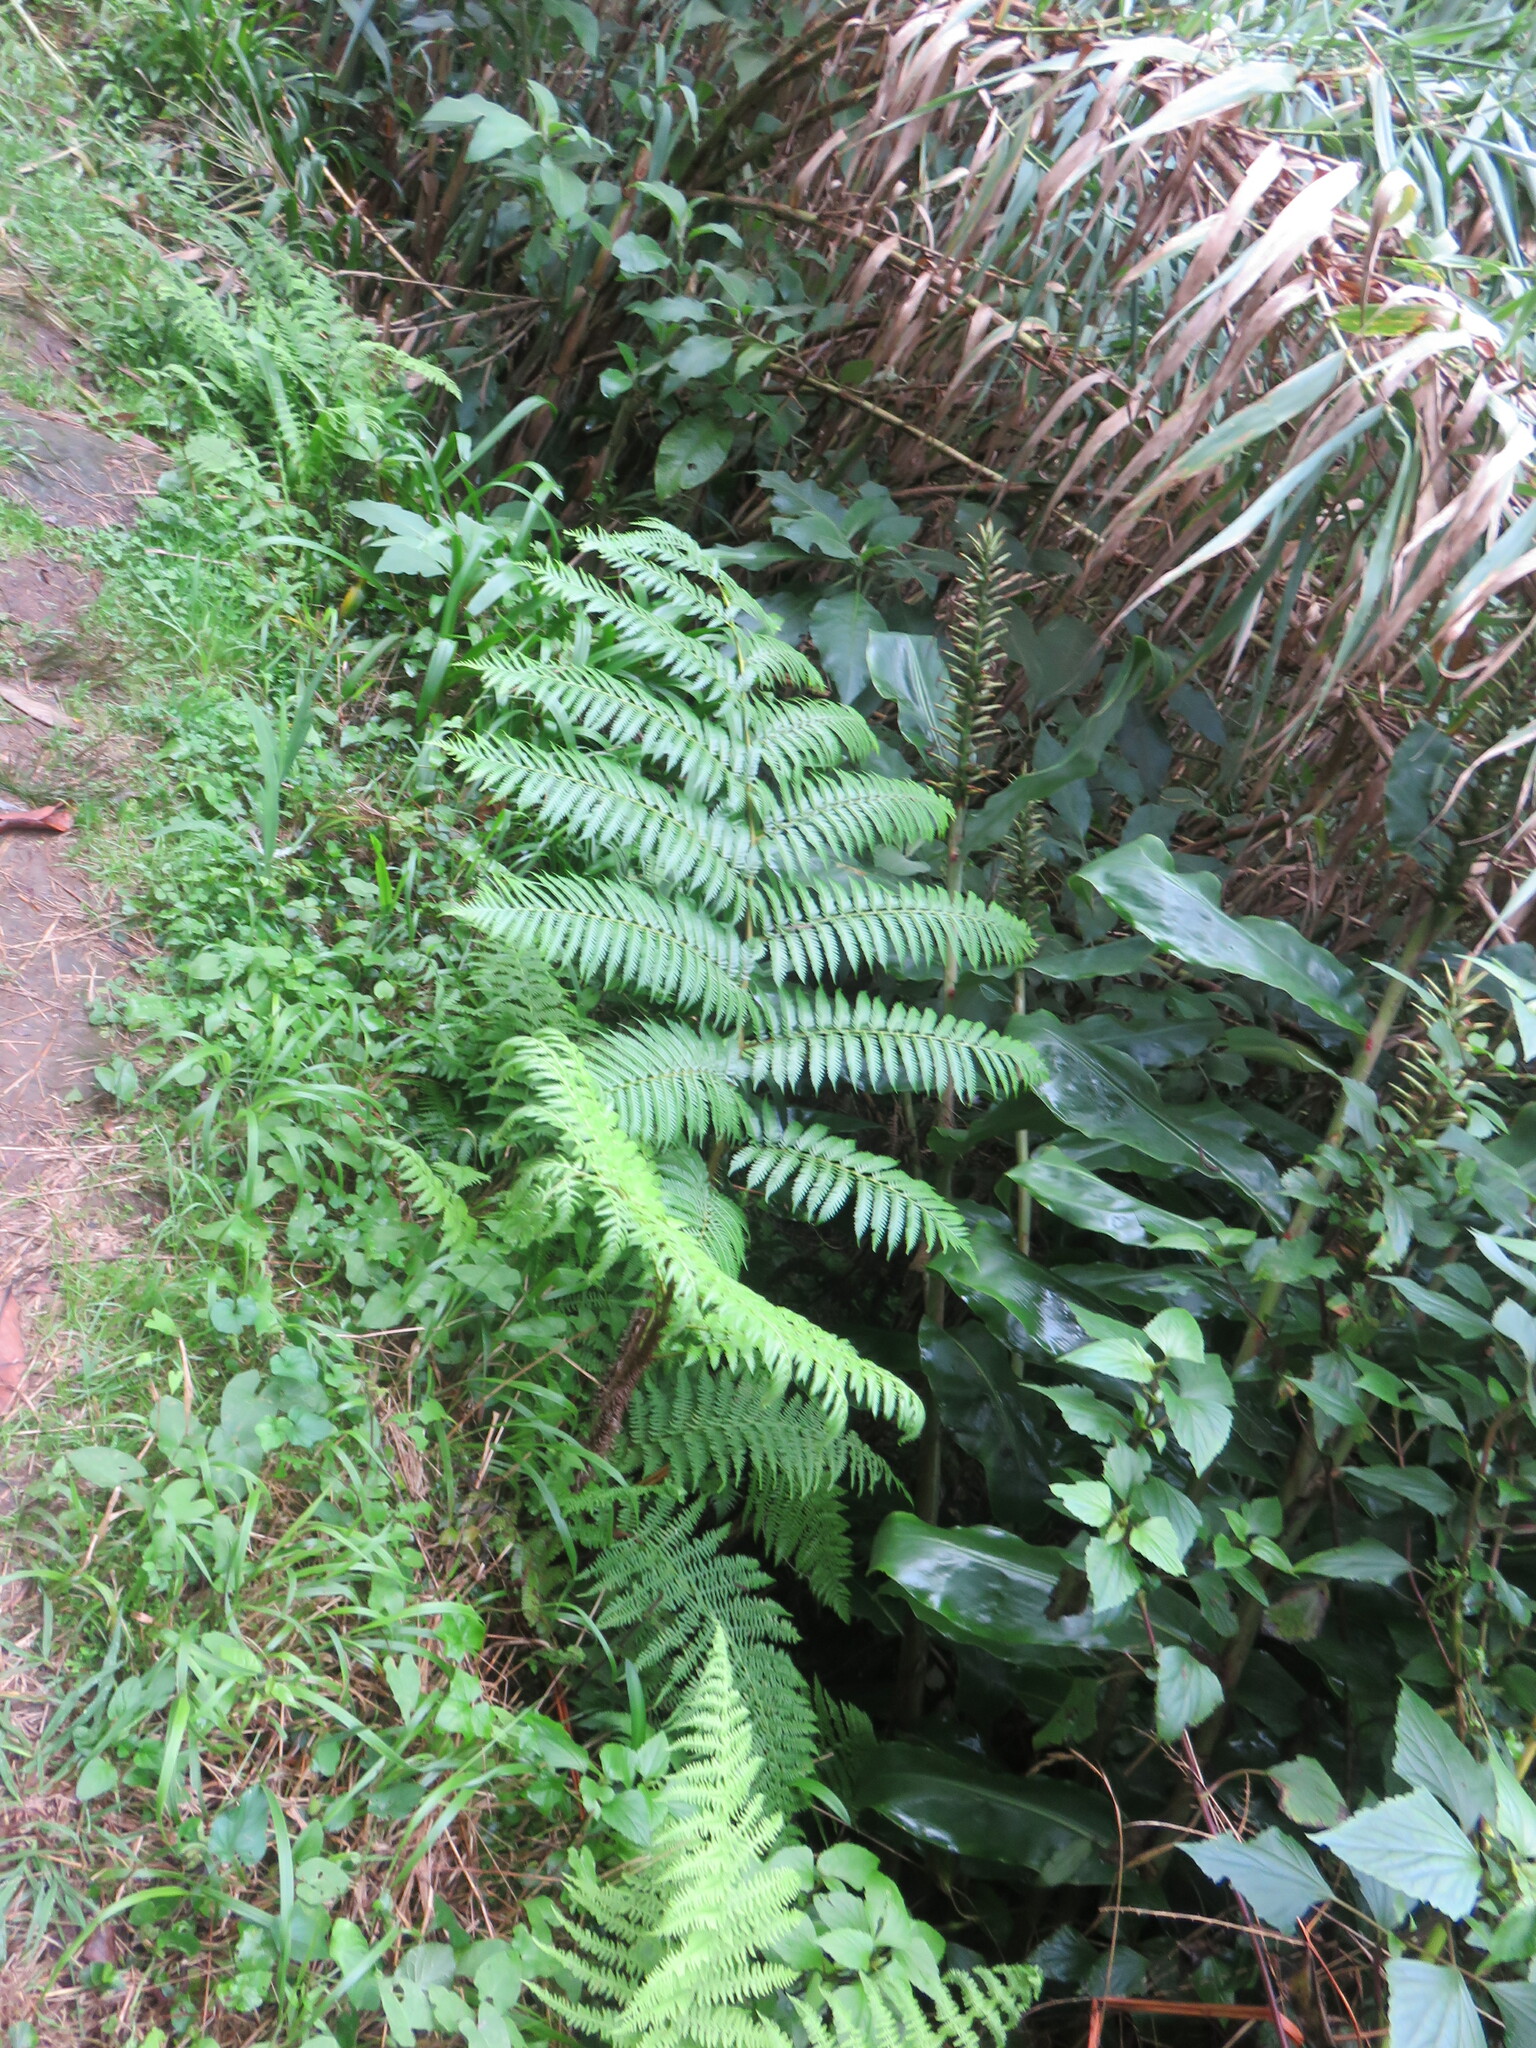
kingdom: Plantae
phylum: Tracheophyta
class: Polypodiopsida
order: Polypodiales
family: Blechnaceae
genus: Woodwardia
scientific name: Woodwardia radicans
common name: Rooting chainfern
